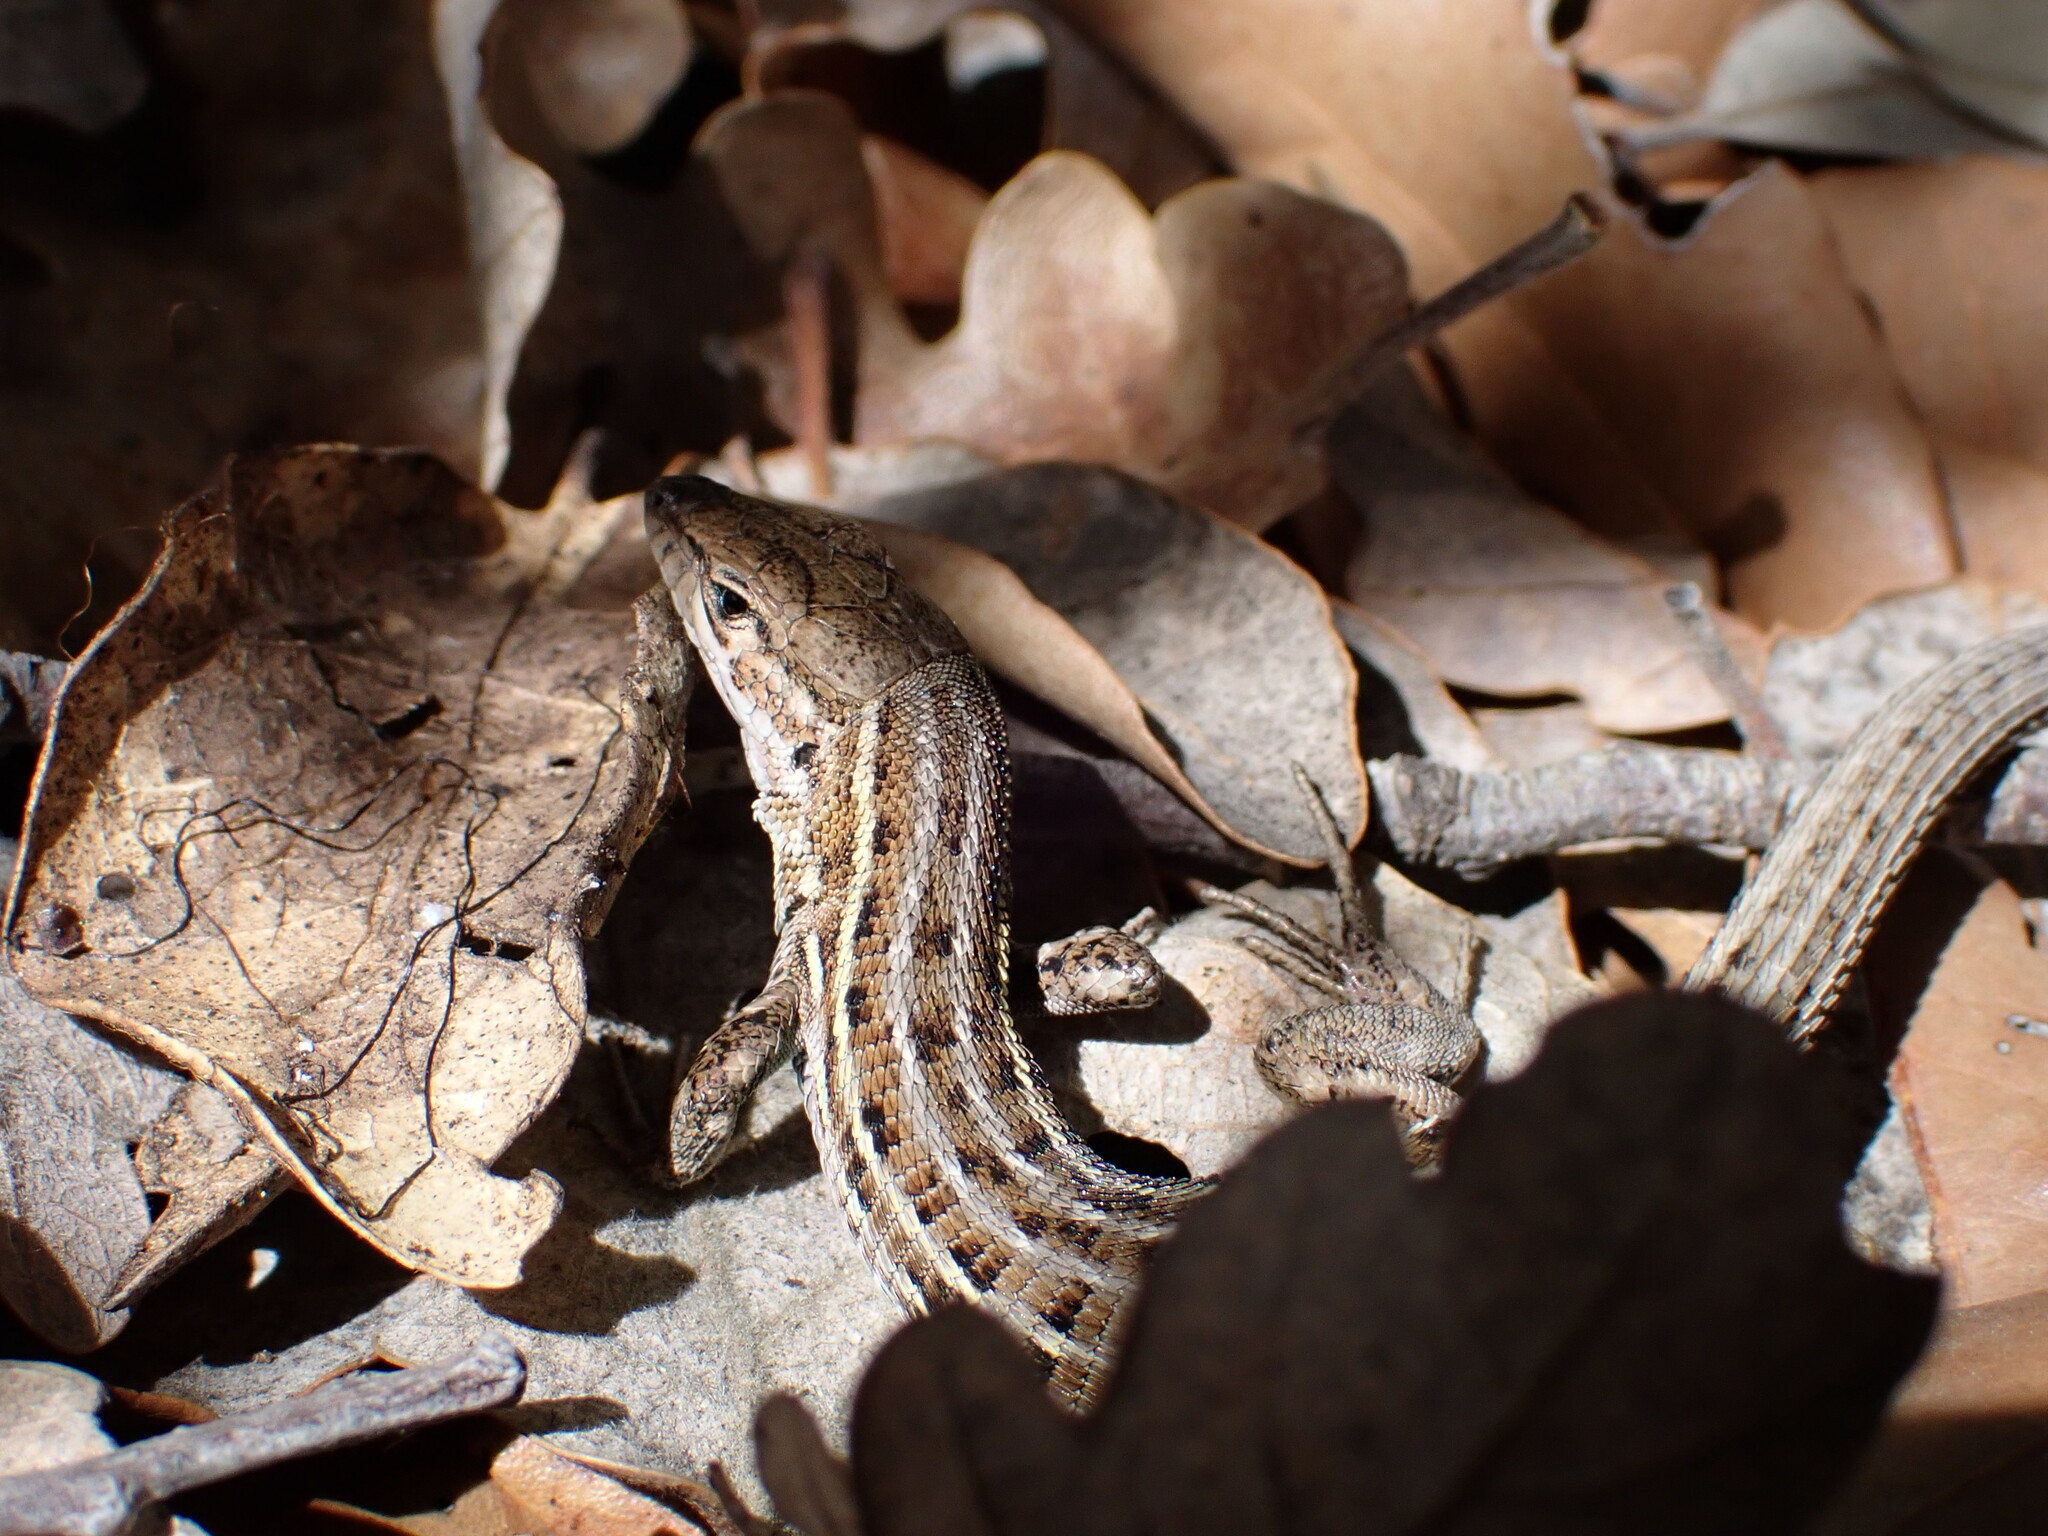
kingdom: Animalia
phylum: Chordata
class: Squamata
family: Lacertidae
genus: Psammodromus
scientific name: Psammodromus edwarsianus
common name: East iberian psammodromus
